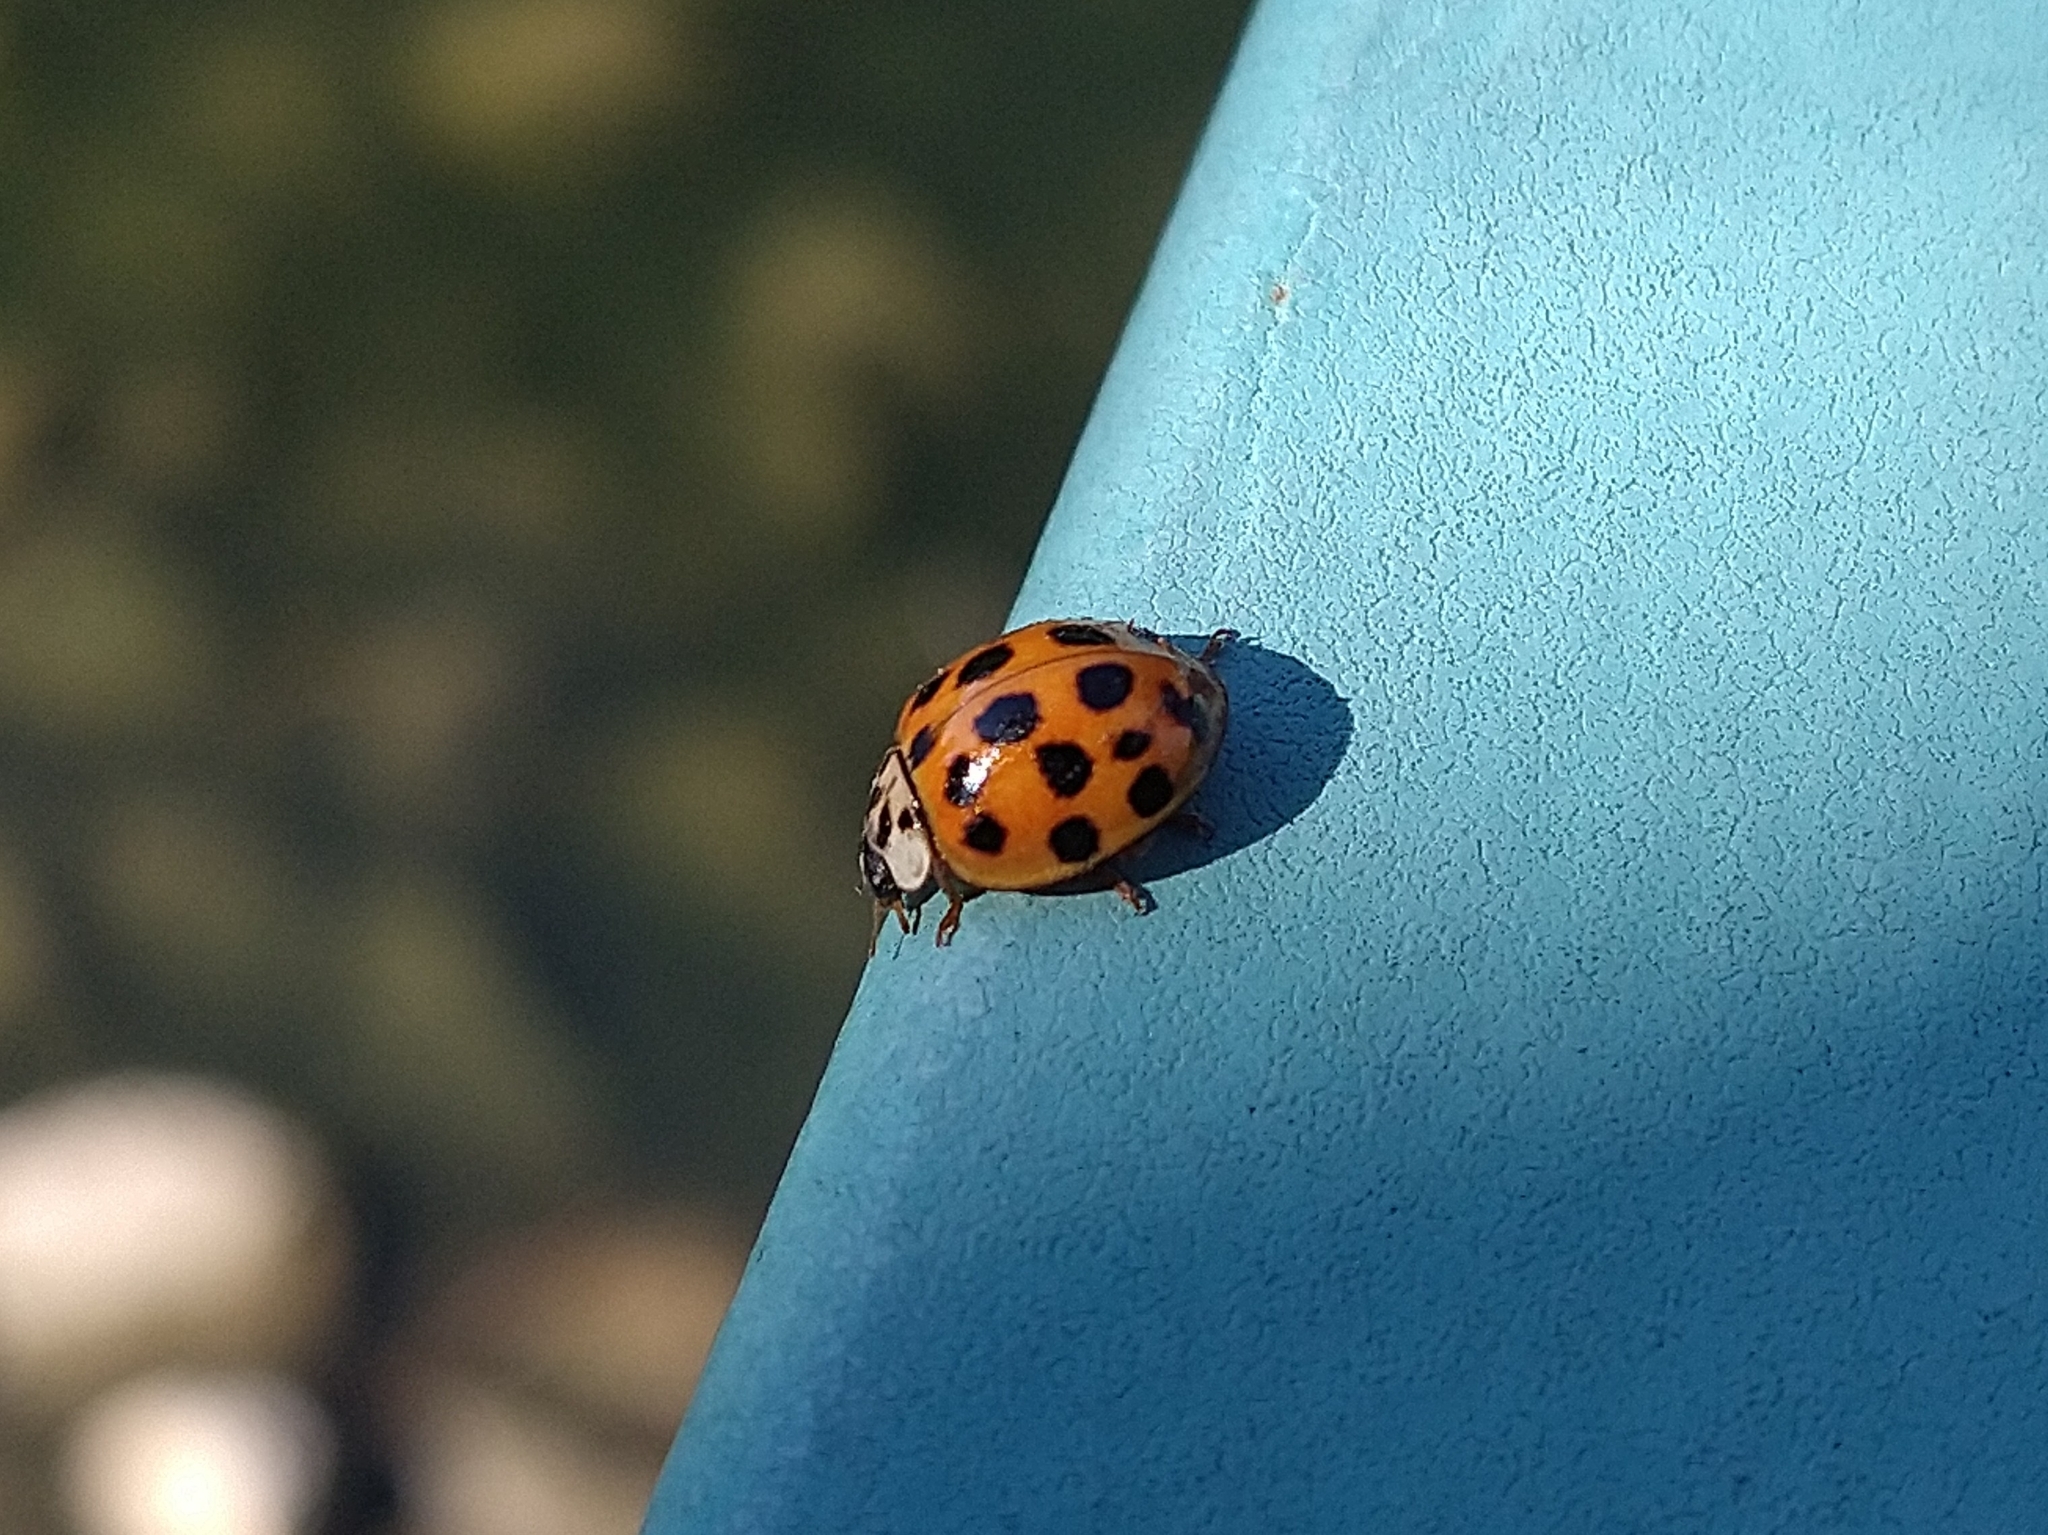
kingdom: Animalia
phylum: Arthropoda
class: Insecta
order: Coleoptera
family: Coccinellidae
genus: Harmonia
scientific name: Harmonia axyridis
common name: Harlequin ladybird
